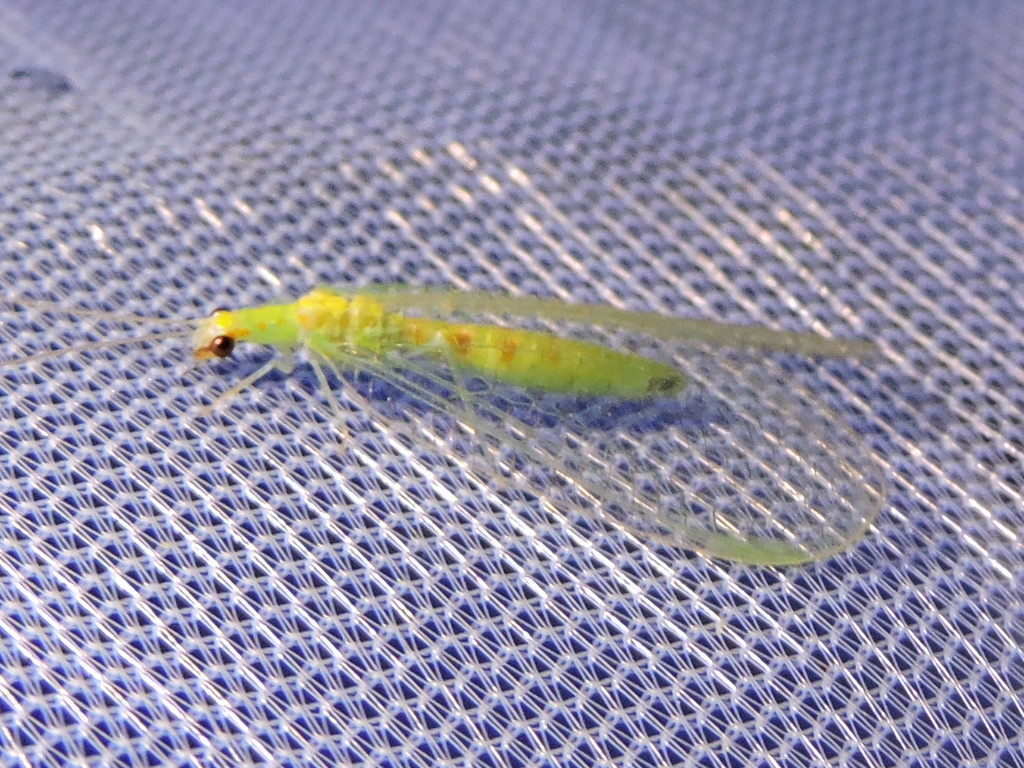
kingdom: Animalia
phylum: Arthropoda
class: Insecta
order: Neuroptera
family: Chrysopidae
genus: Chrysopa
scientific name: Chrysopa quadripunctata
